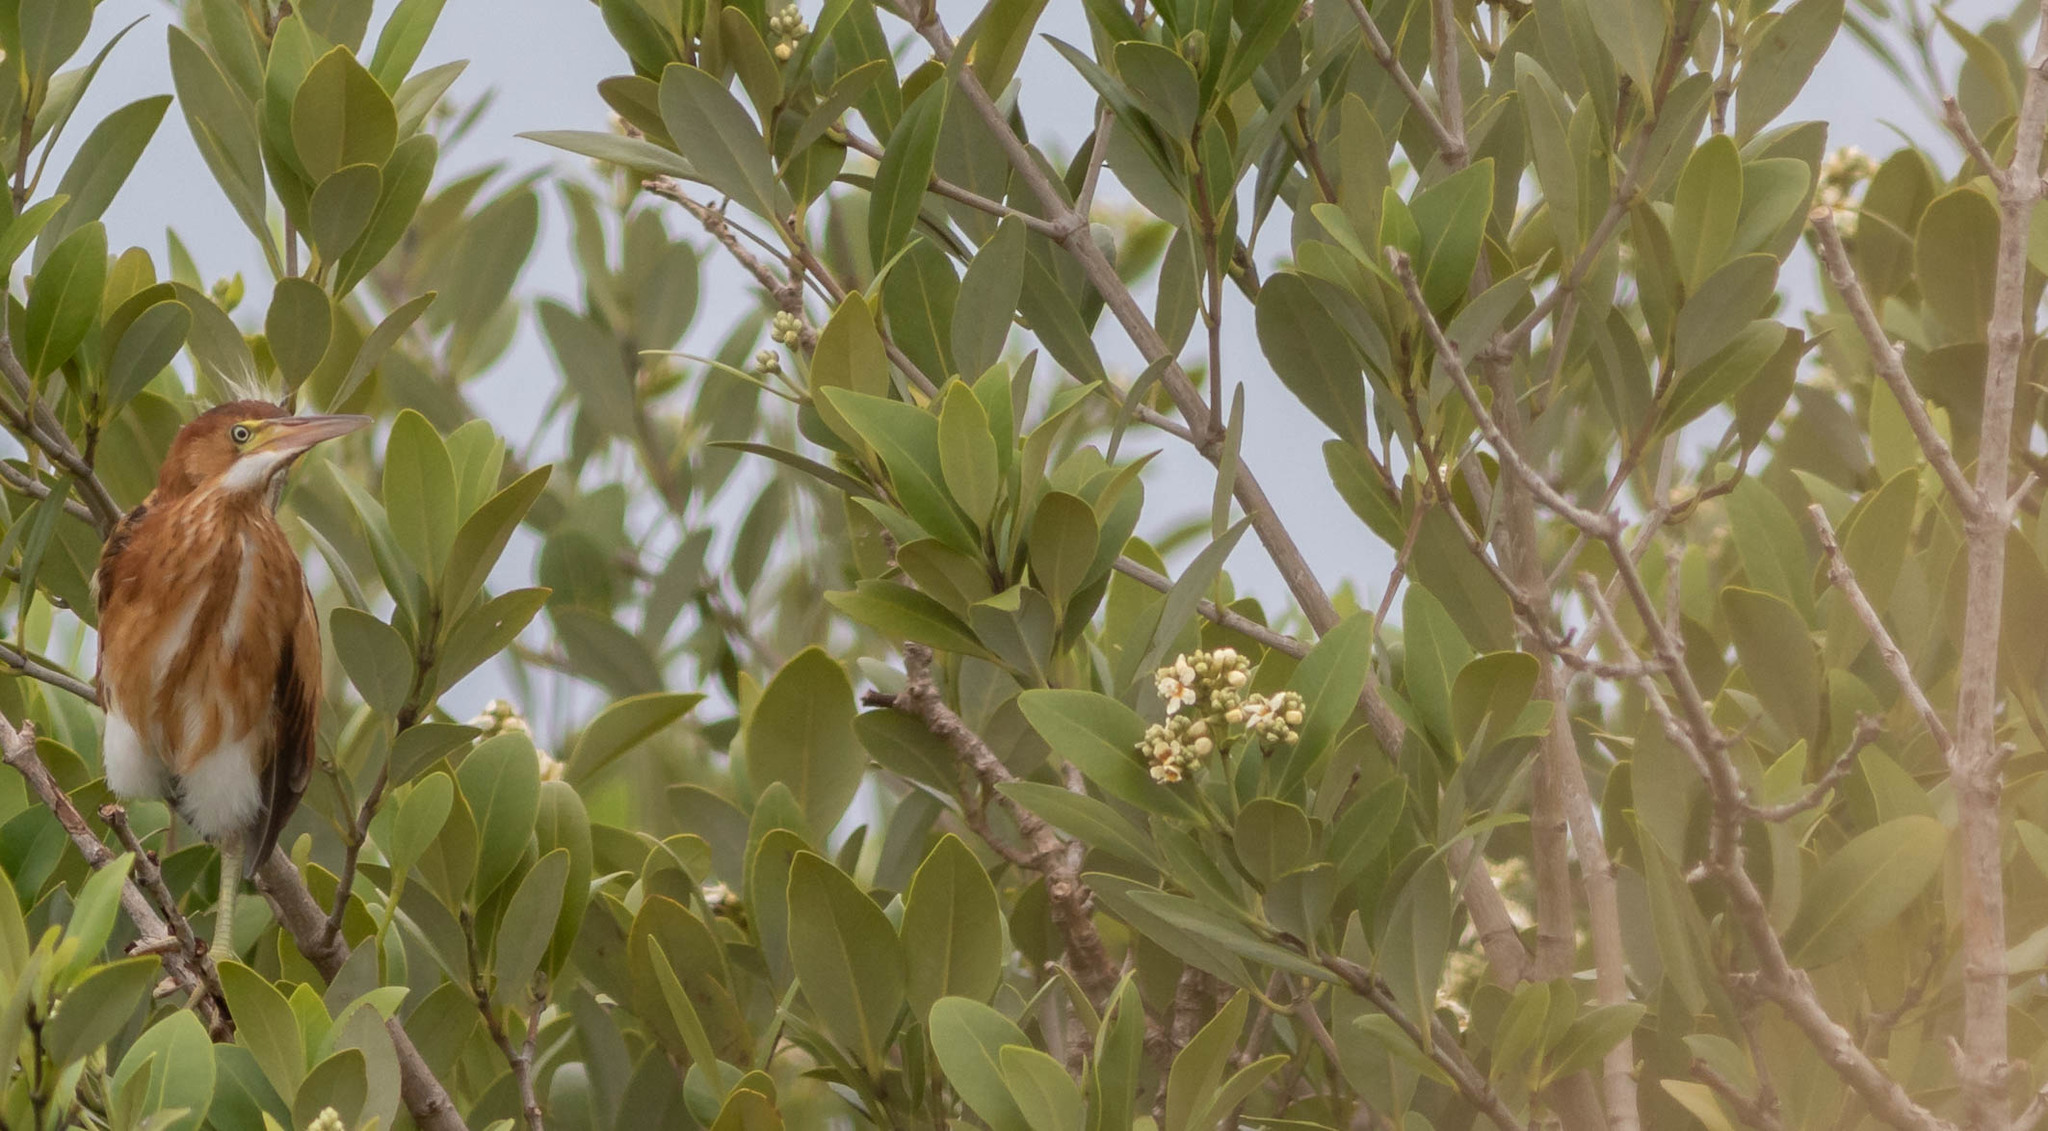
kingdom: Animalia
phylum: Chordata
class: Aves
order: Pelecaniformes
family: Ardeidae
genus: Ixobrychus
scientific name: Ixobrychus exilis
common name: Least bittern
